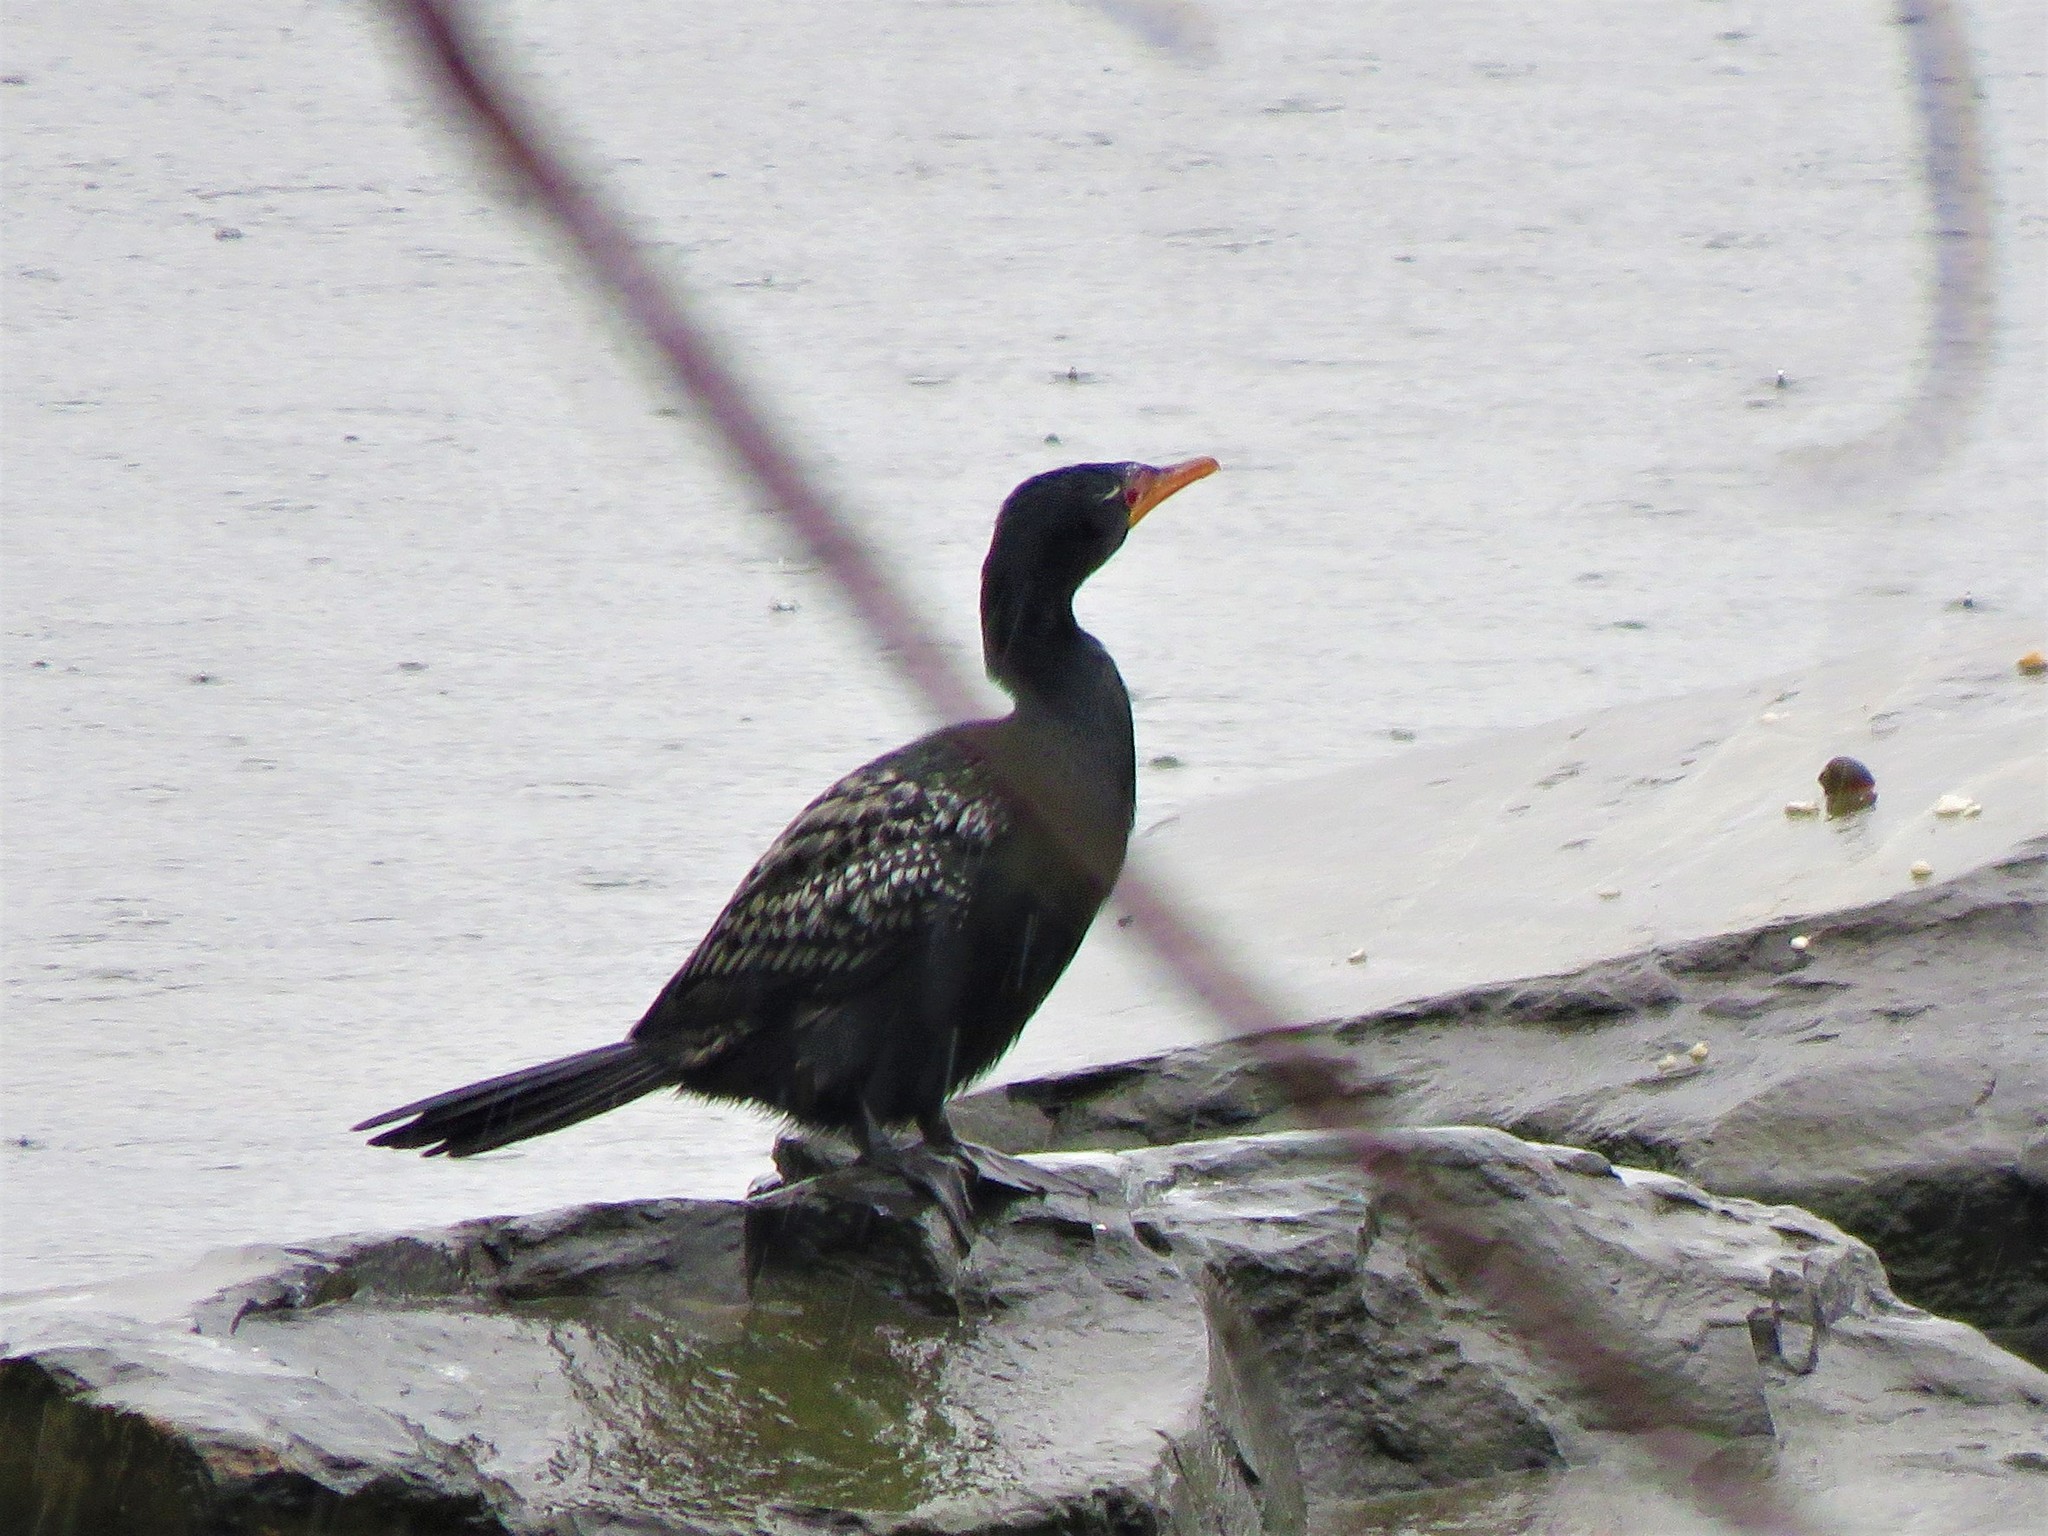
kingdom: Animalia
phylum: Chordata
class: Aves
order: Suliformes
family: Phalacrocoracidae
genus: Microcarbo
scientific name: Microcarbo africanus
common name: Long-tailed cormorant
